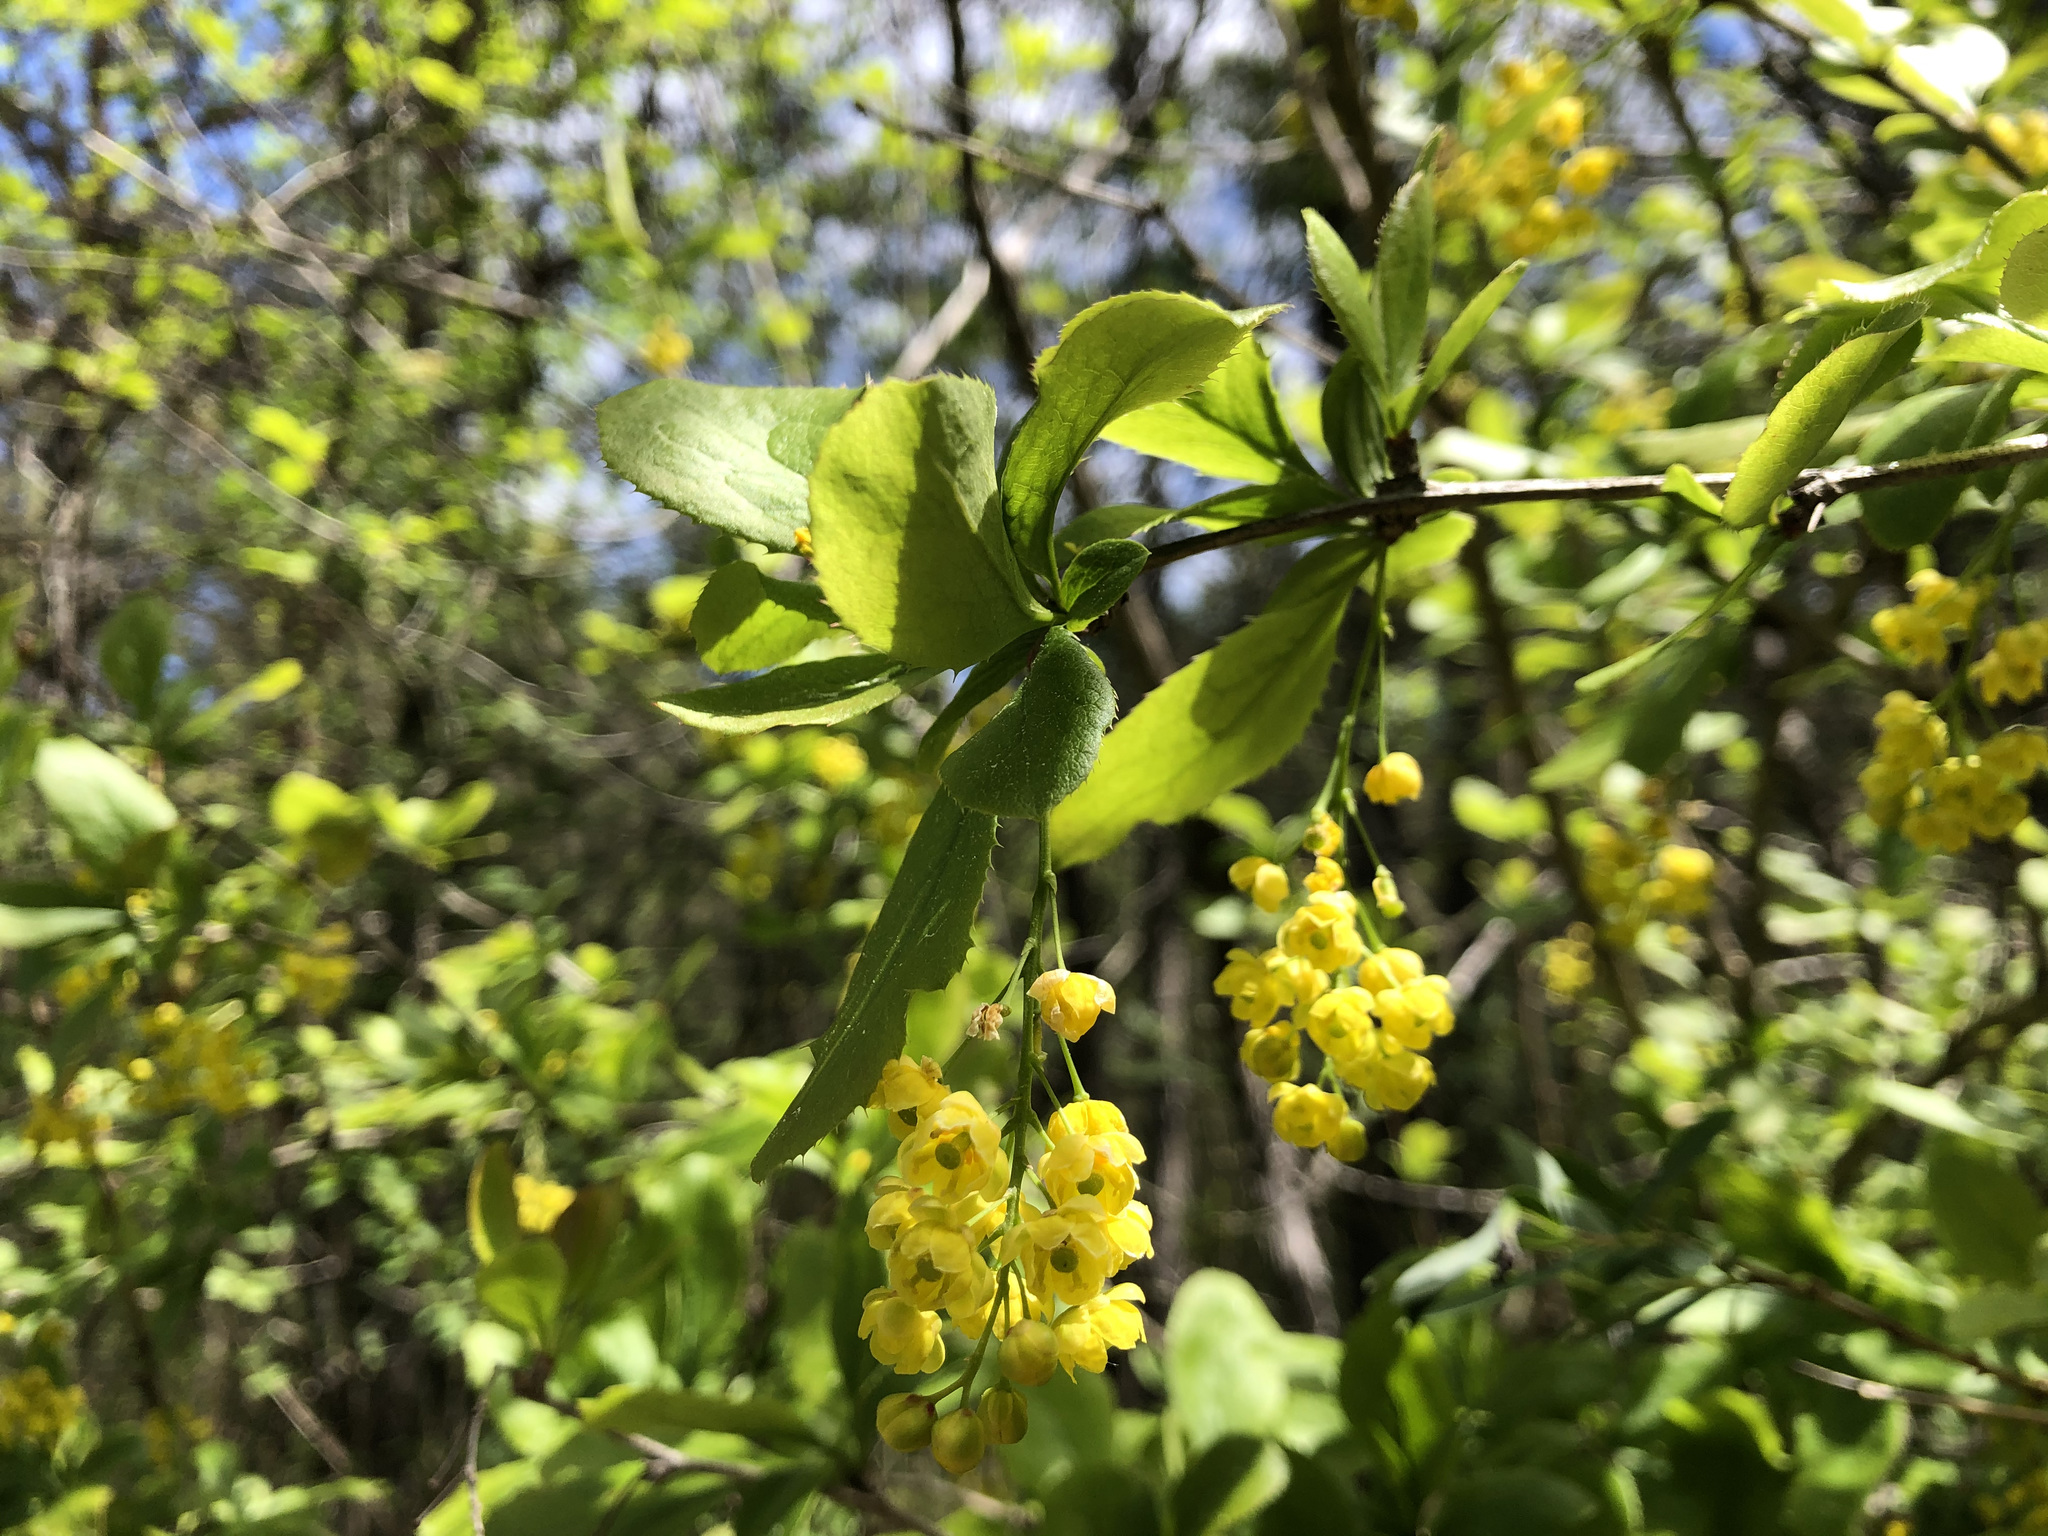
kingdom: Plantae
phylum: Tracheophyta
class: Magnoliopsida
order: Ranunculales
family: Berberidaceae
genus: Berberis
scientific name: Berberis vulgaris
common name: Barberry
